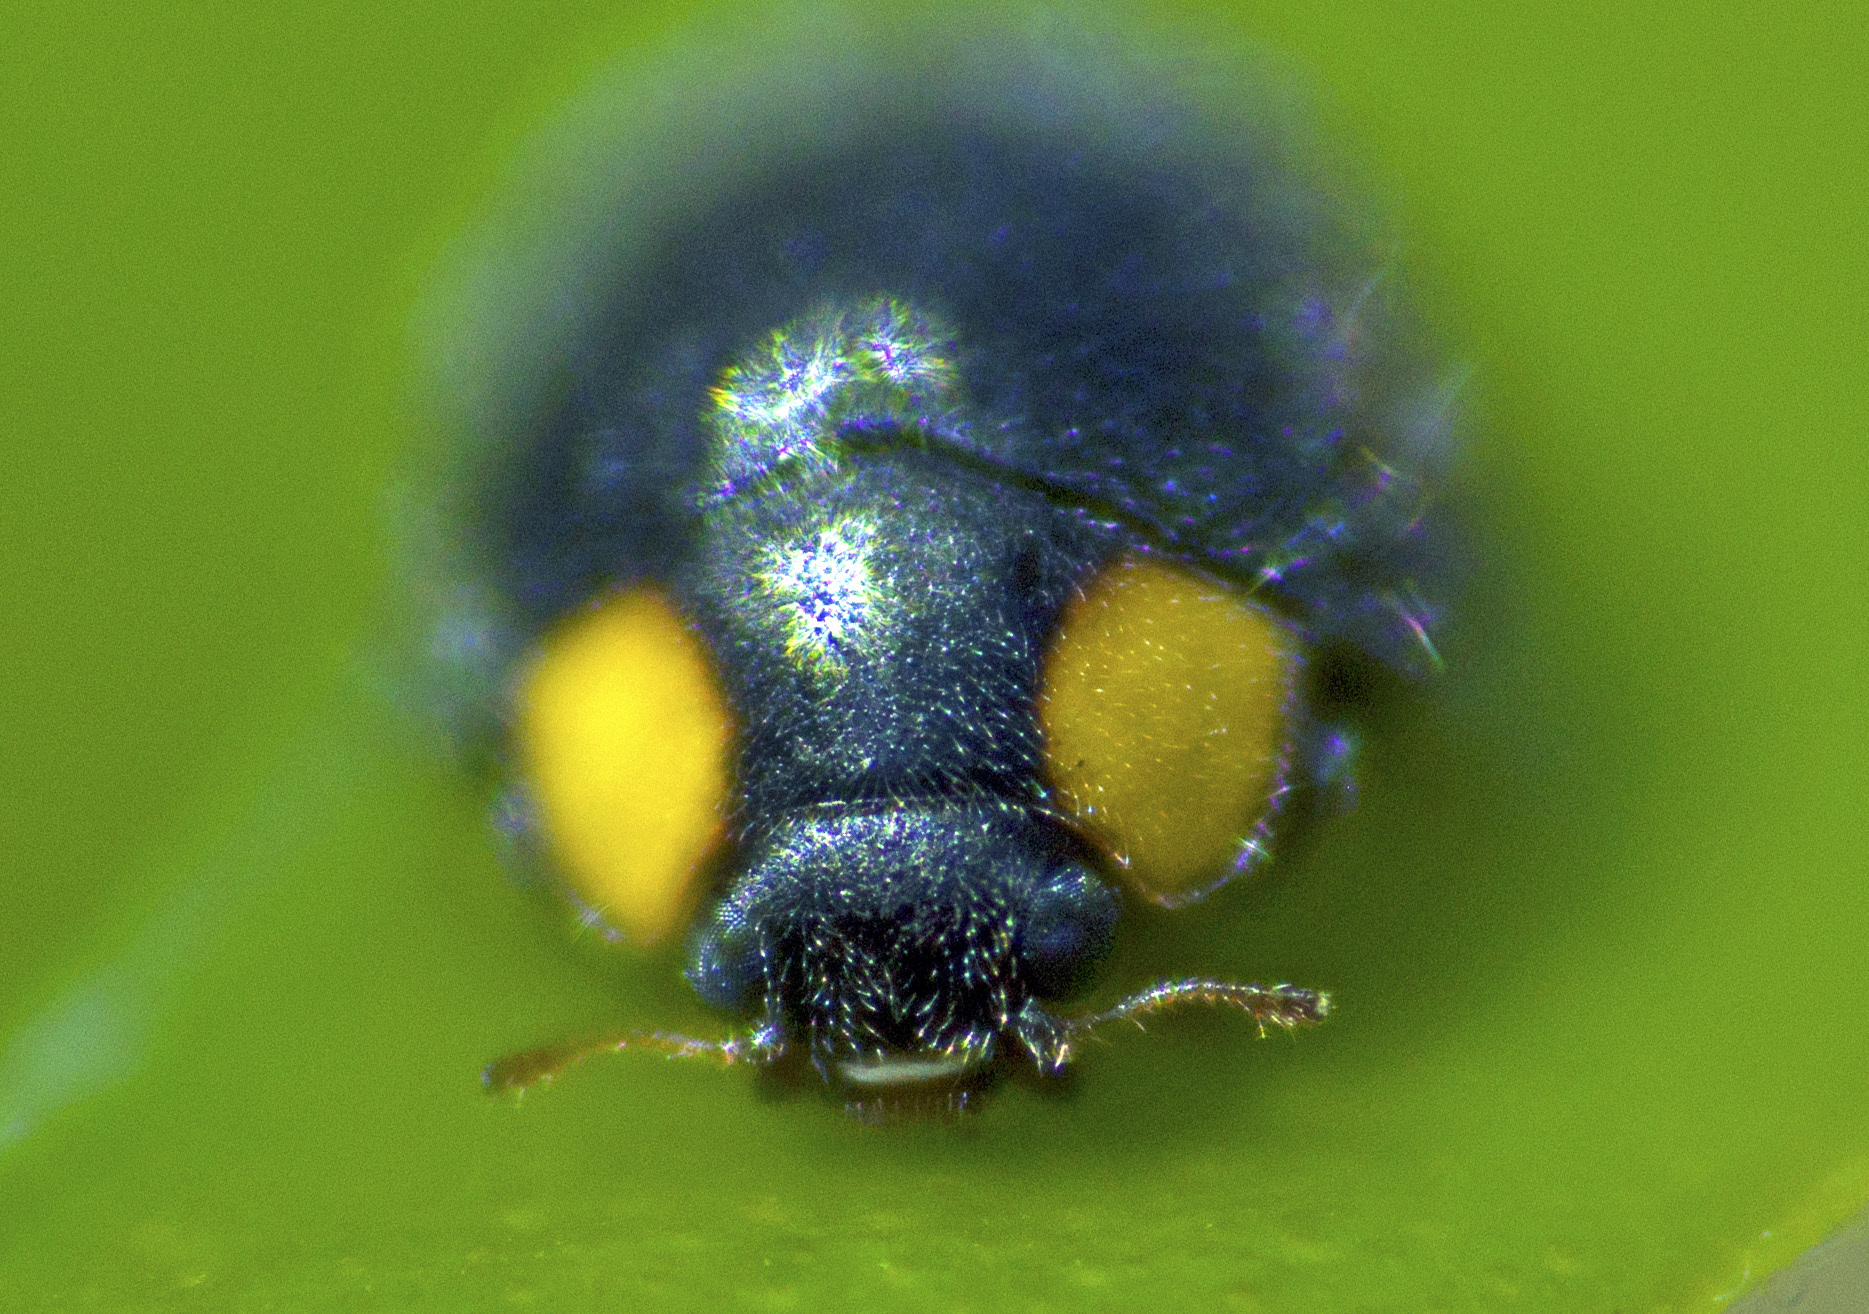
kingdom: Animalia
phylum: Arthropoda
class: Insecta
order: Coleoptera
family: Coccinellidae
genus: Scymnodes
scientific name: Scymnodes lividigaster
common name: Yellowshouldered lady beetle
